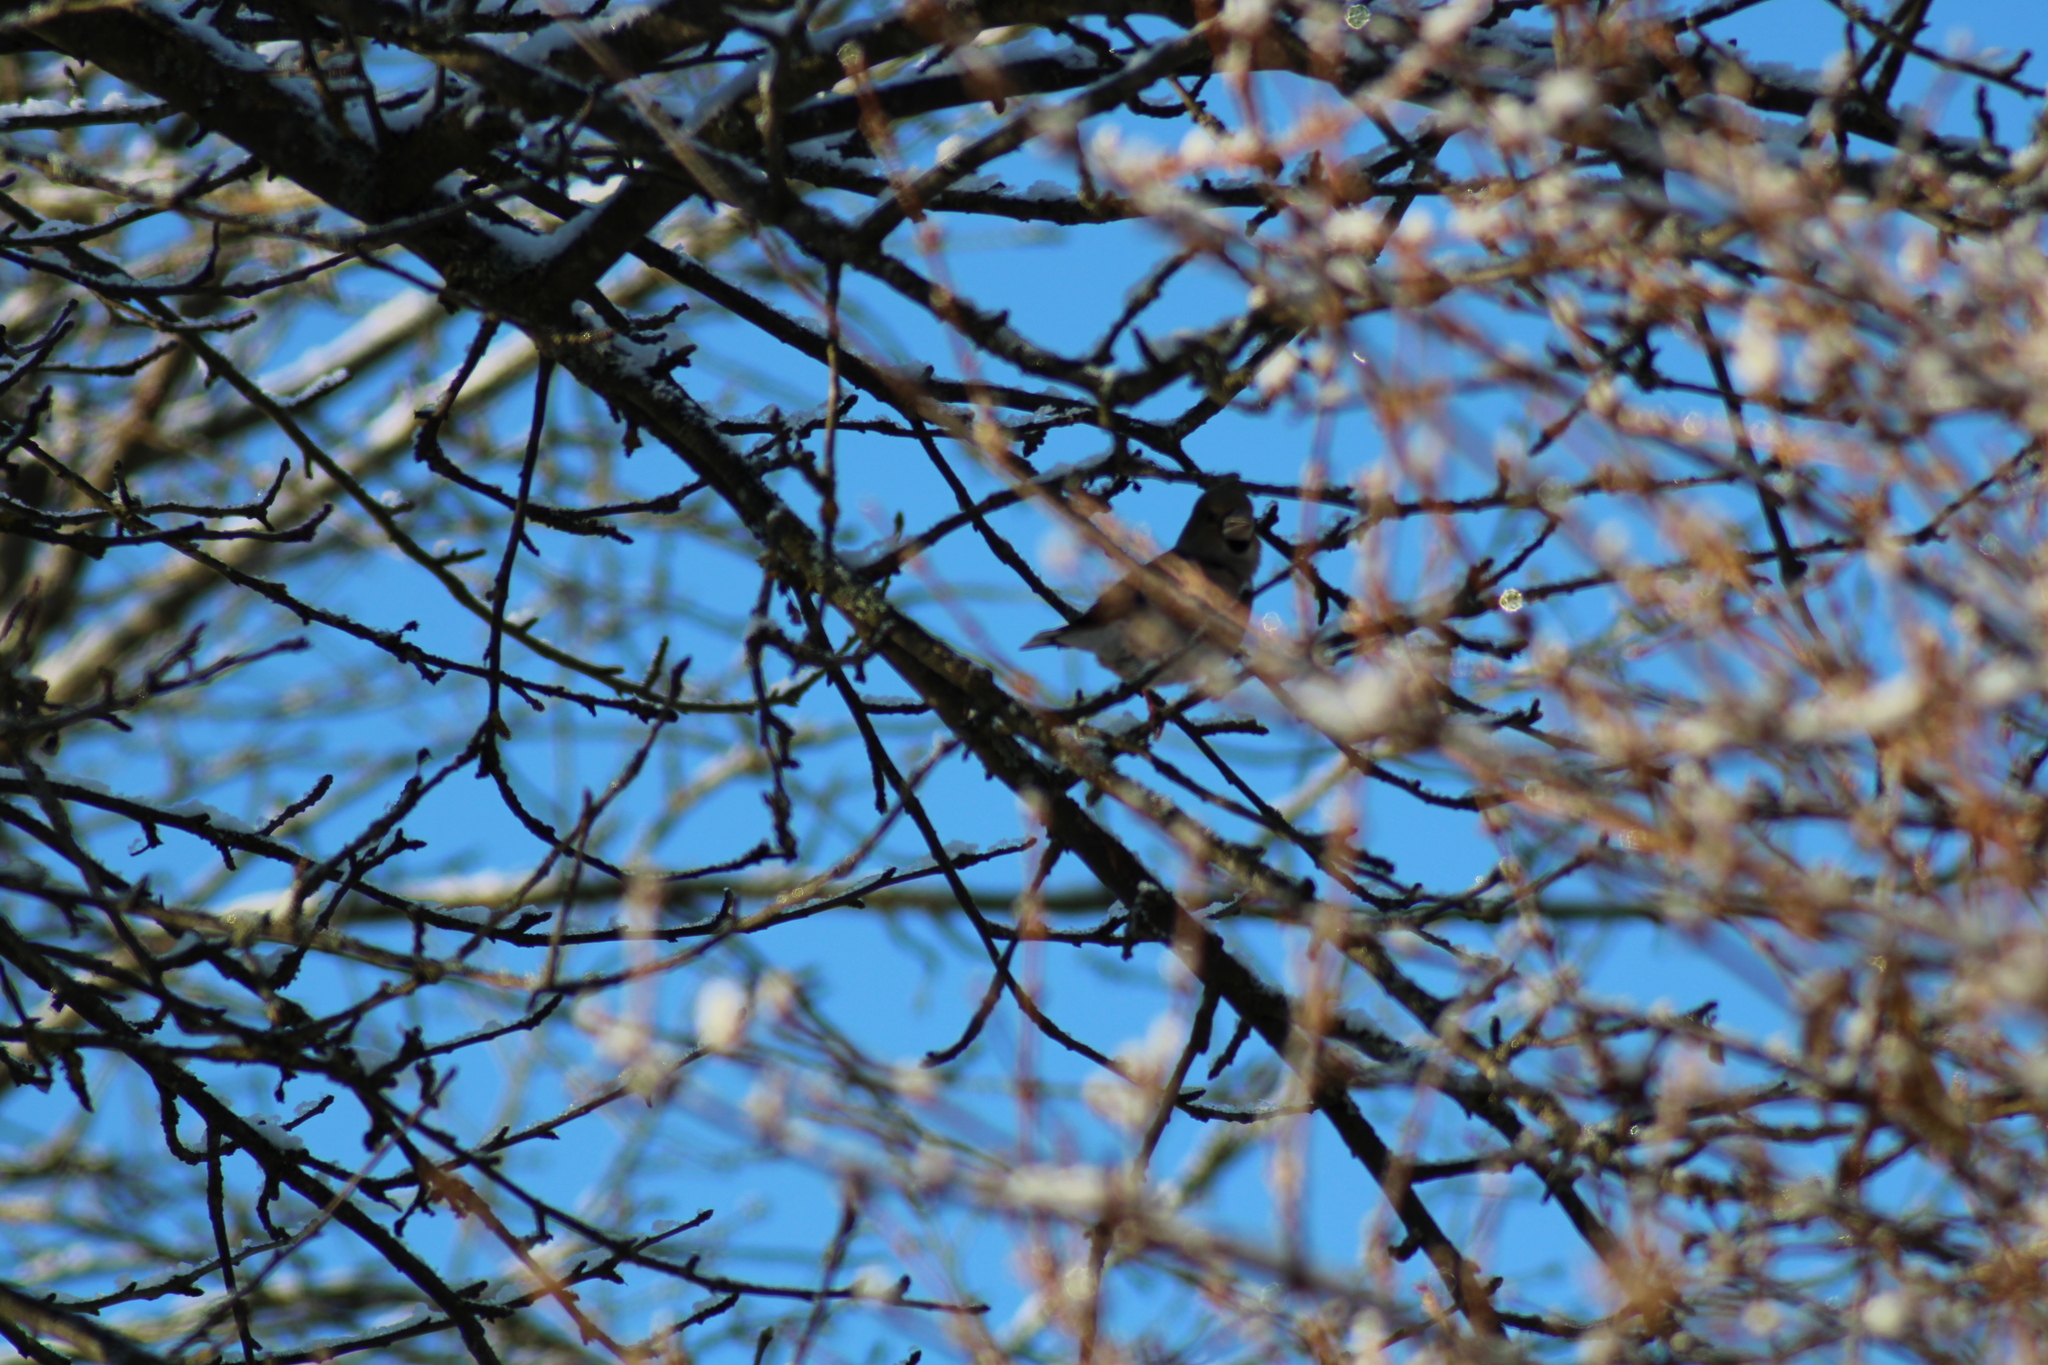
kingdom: Animalia
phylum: Chordata
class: Aves
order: Passeriformes
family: Fringillidae
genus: Coccothraustes
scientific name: Coccothraustes coccothraustes
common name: Hawfinch
